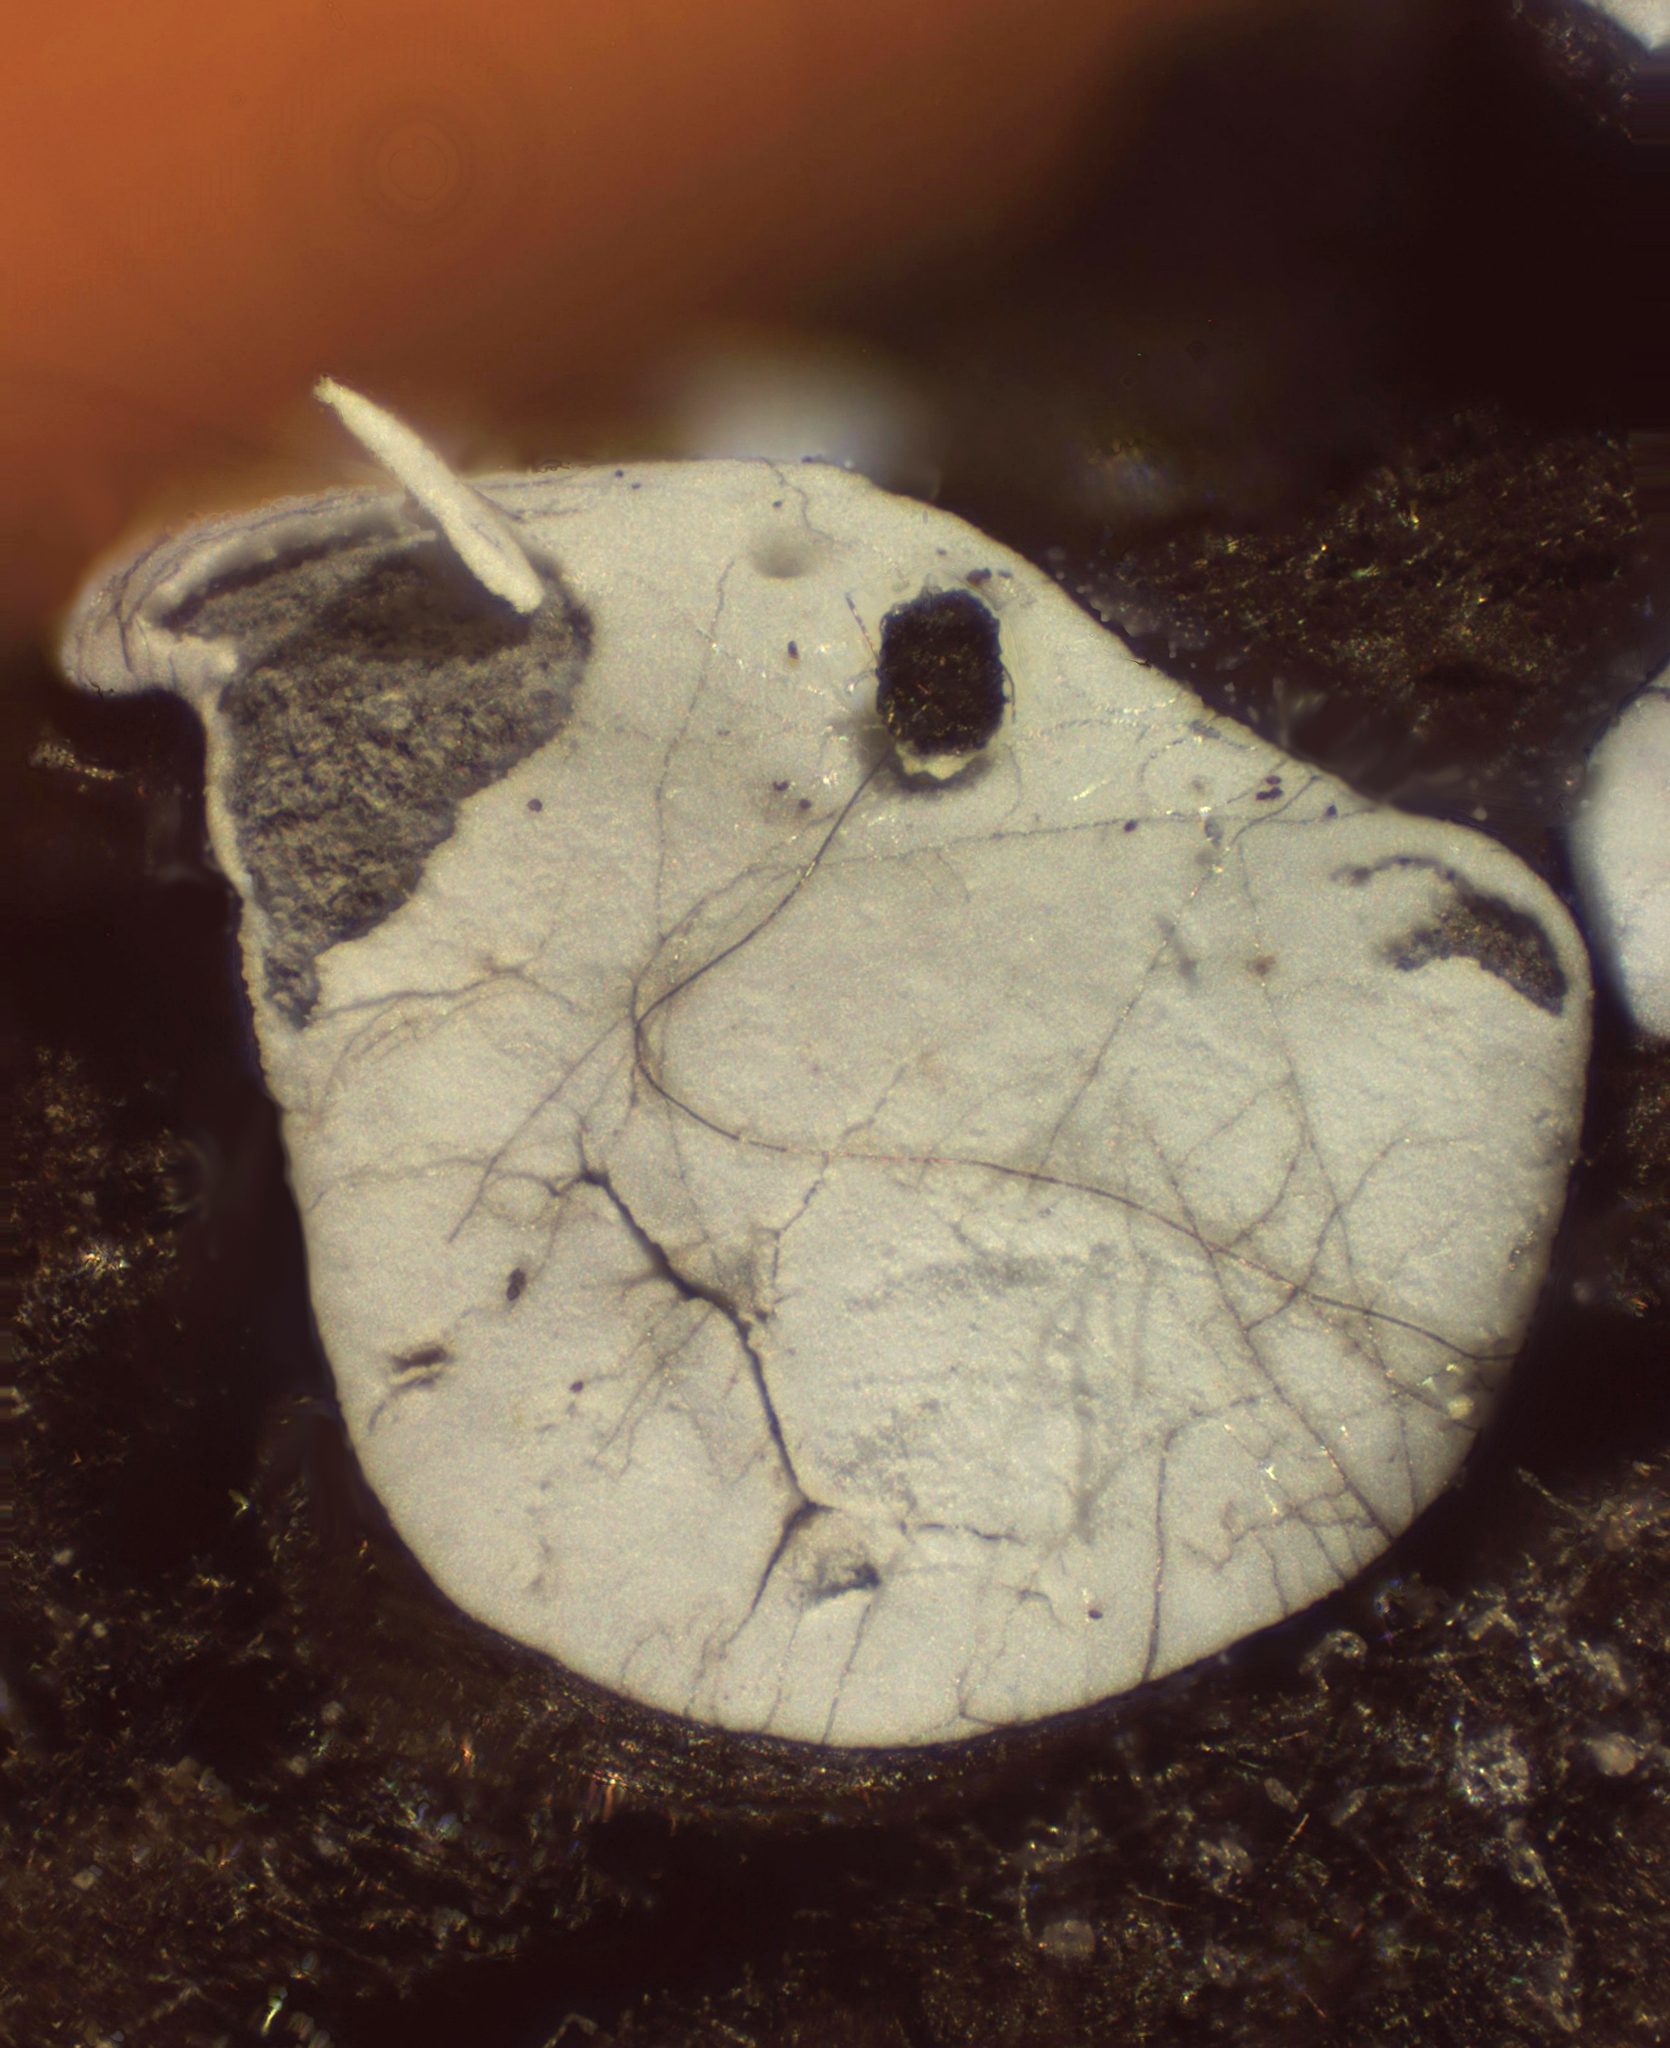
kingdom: Protozoa
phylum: Mycetozoa
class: Myxomycetes
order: Physarales
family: Didymiaceae
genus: Diderma
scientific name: Diderma effusum
